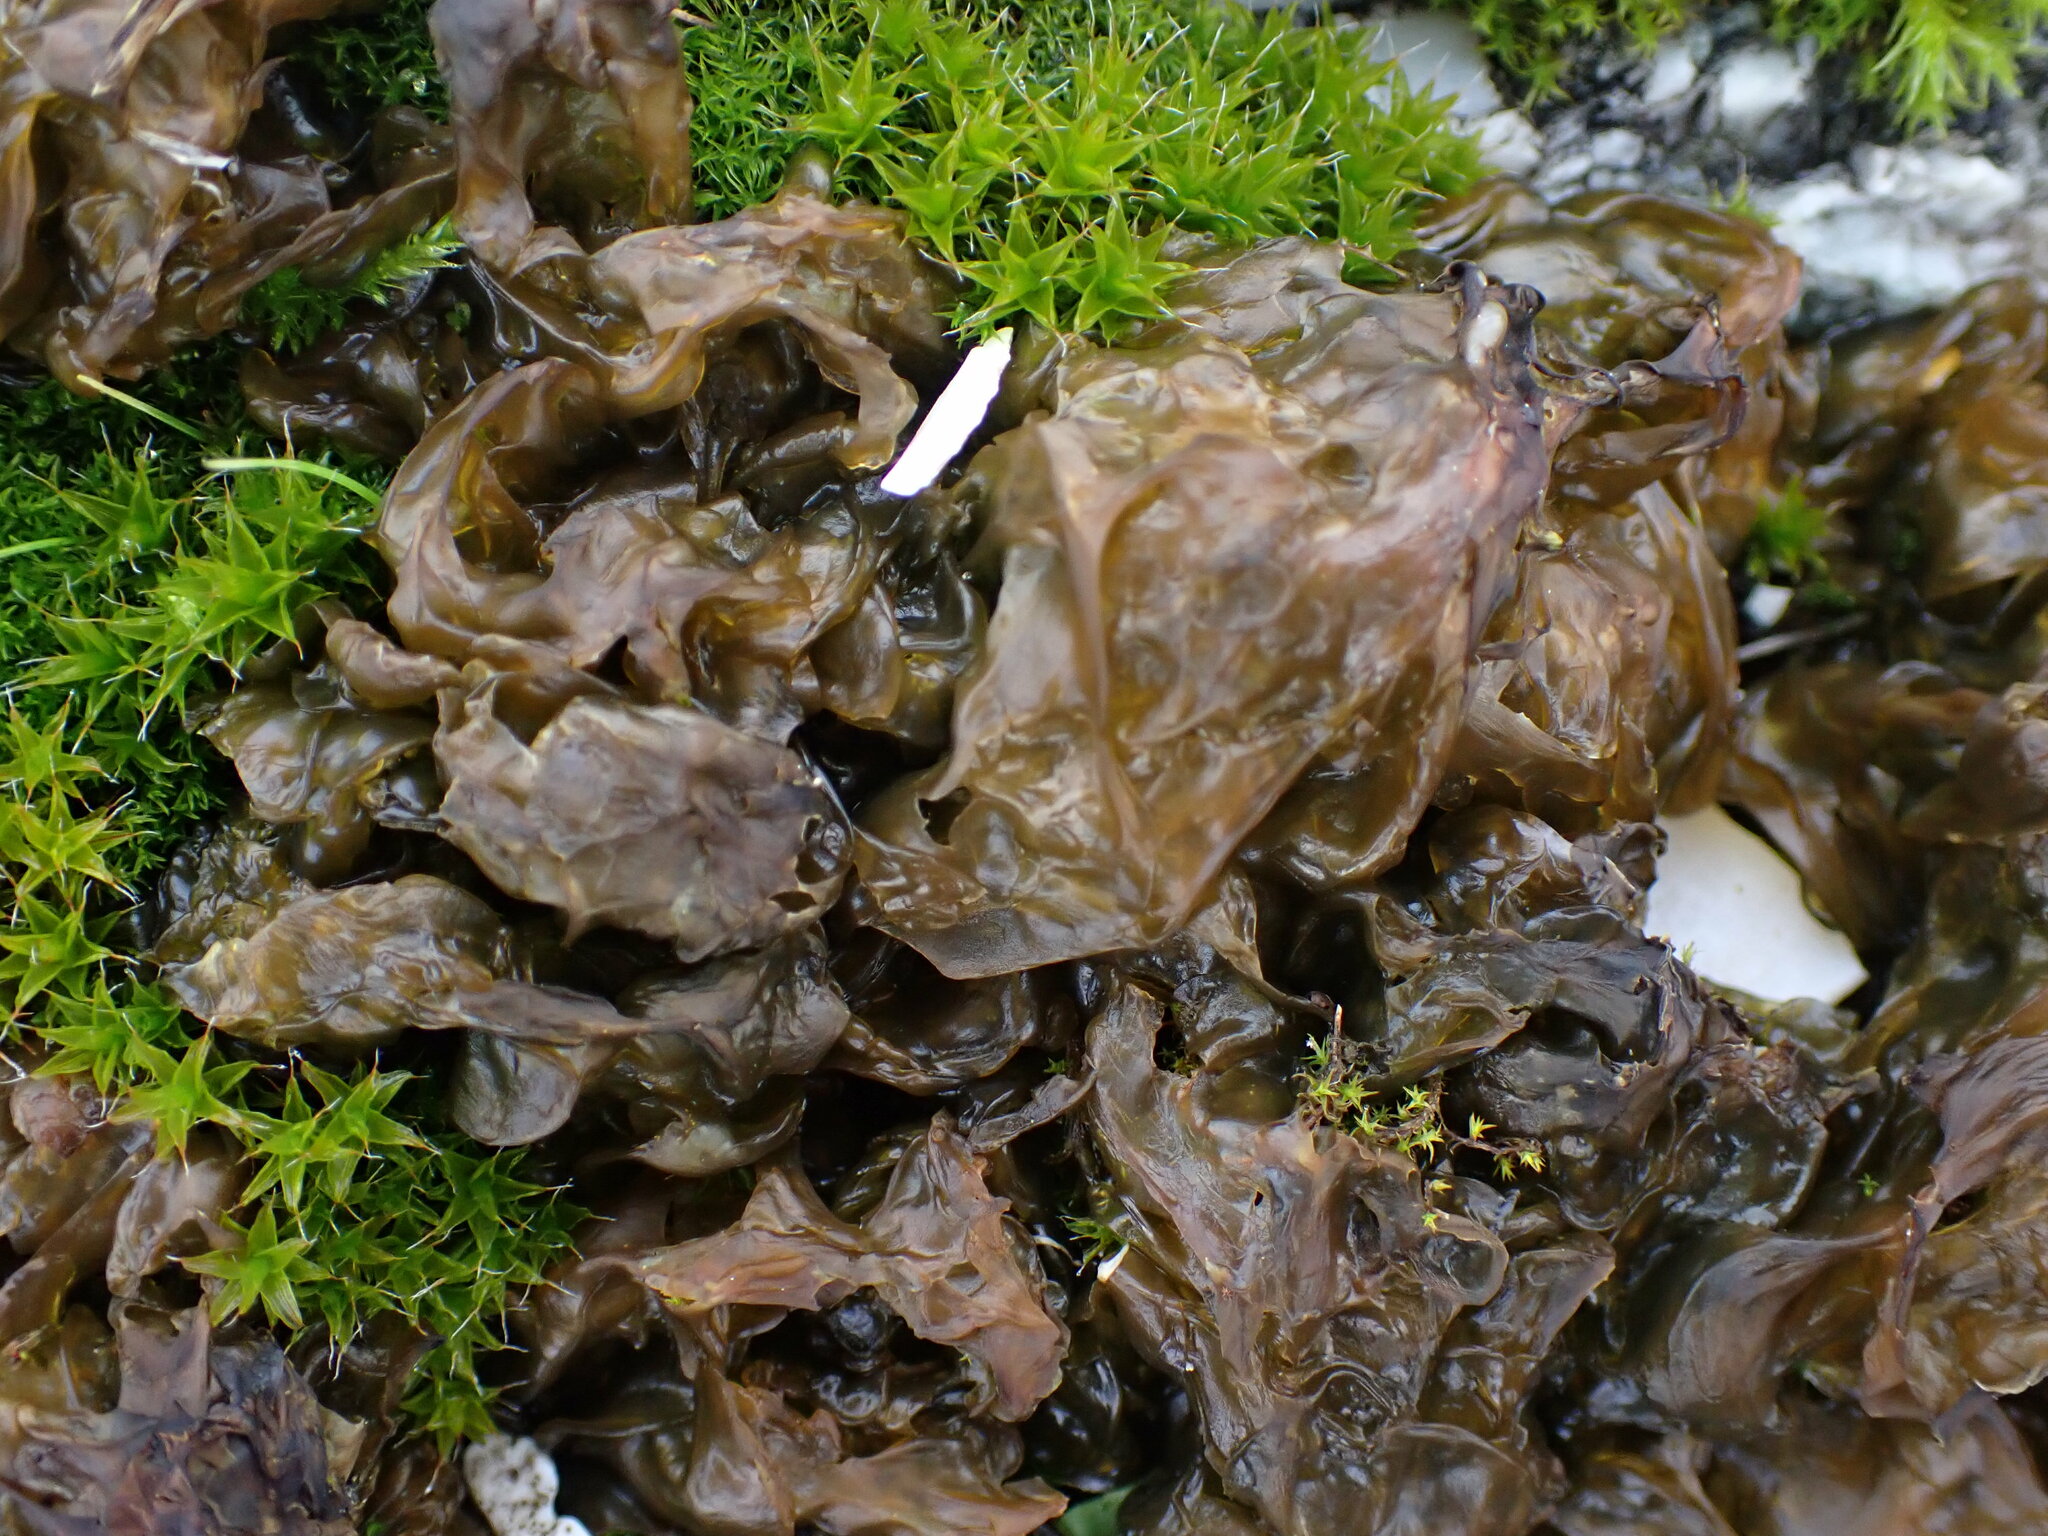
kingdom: Bacteria
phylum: Cyanobacteria
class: Cyanobacteriia
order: Cyanobacteriales
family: Nostocaceae
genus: Nostoc
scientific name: Nostoc commune
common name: Star jelly
